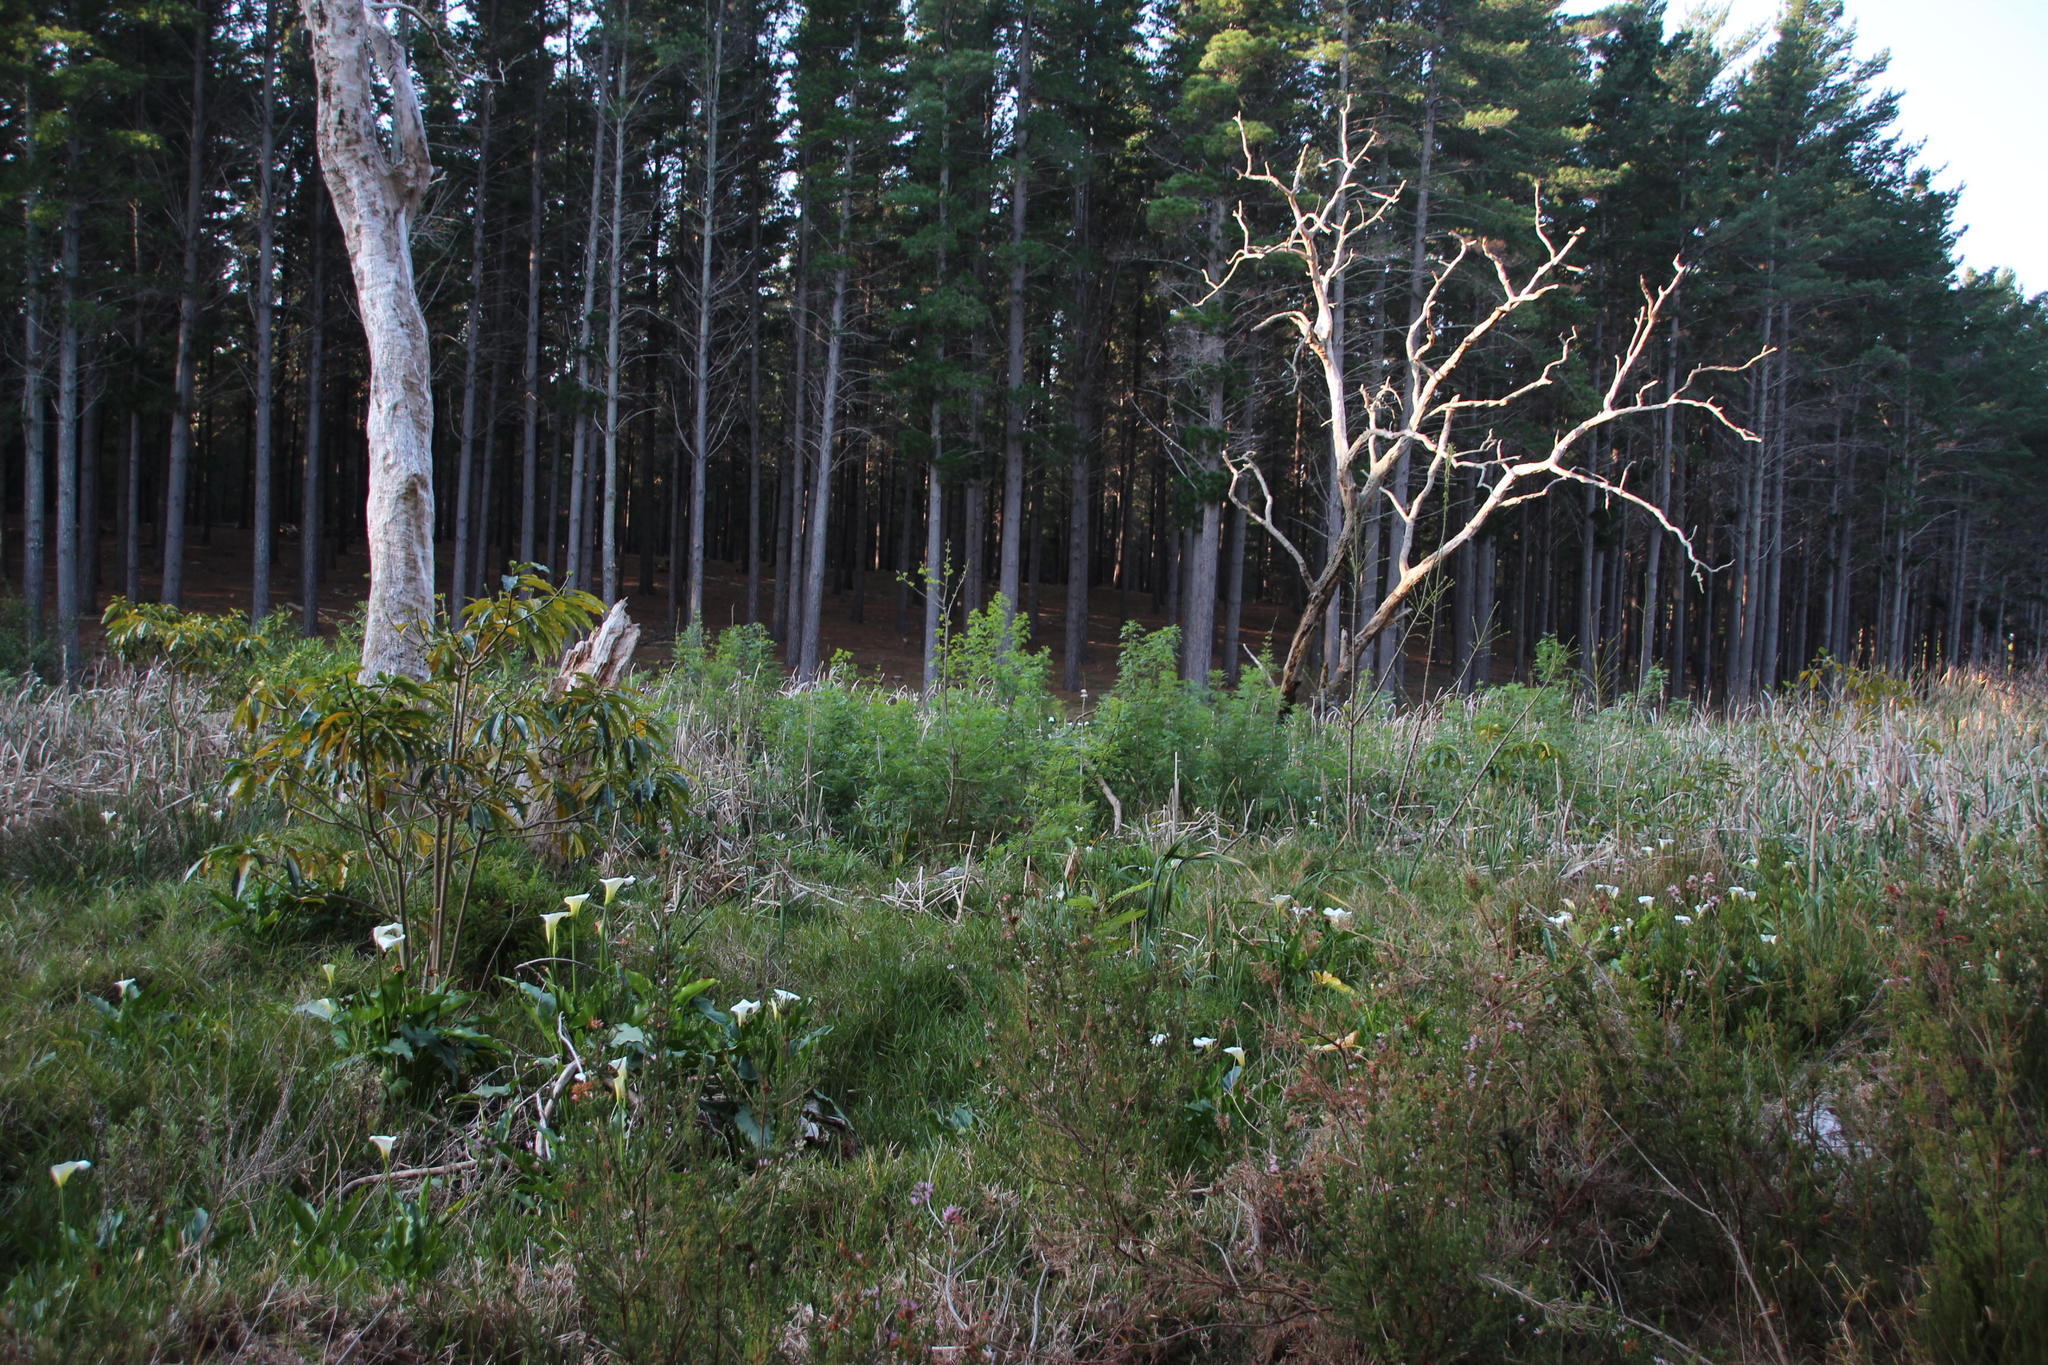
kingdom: Plantae
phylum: Tracheophyta
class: Magnoliopsida
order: Gentianales
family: Apocynaceae
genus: Rauvolfia
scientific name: Rauvolfia caffra
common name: Quininetree
